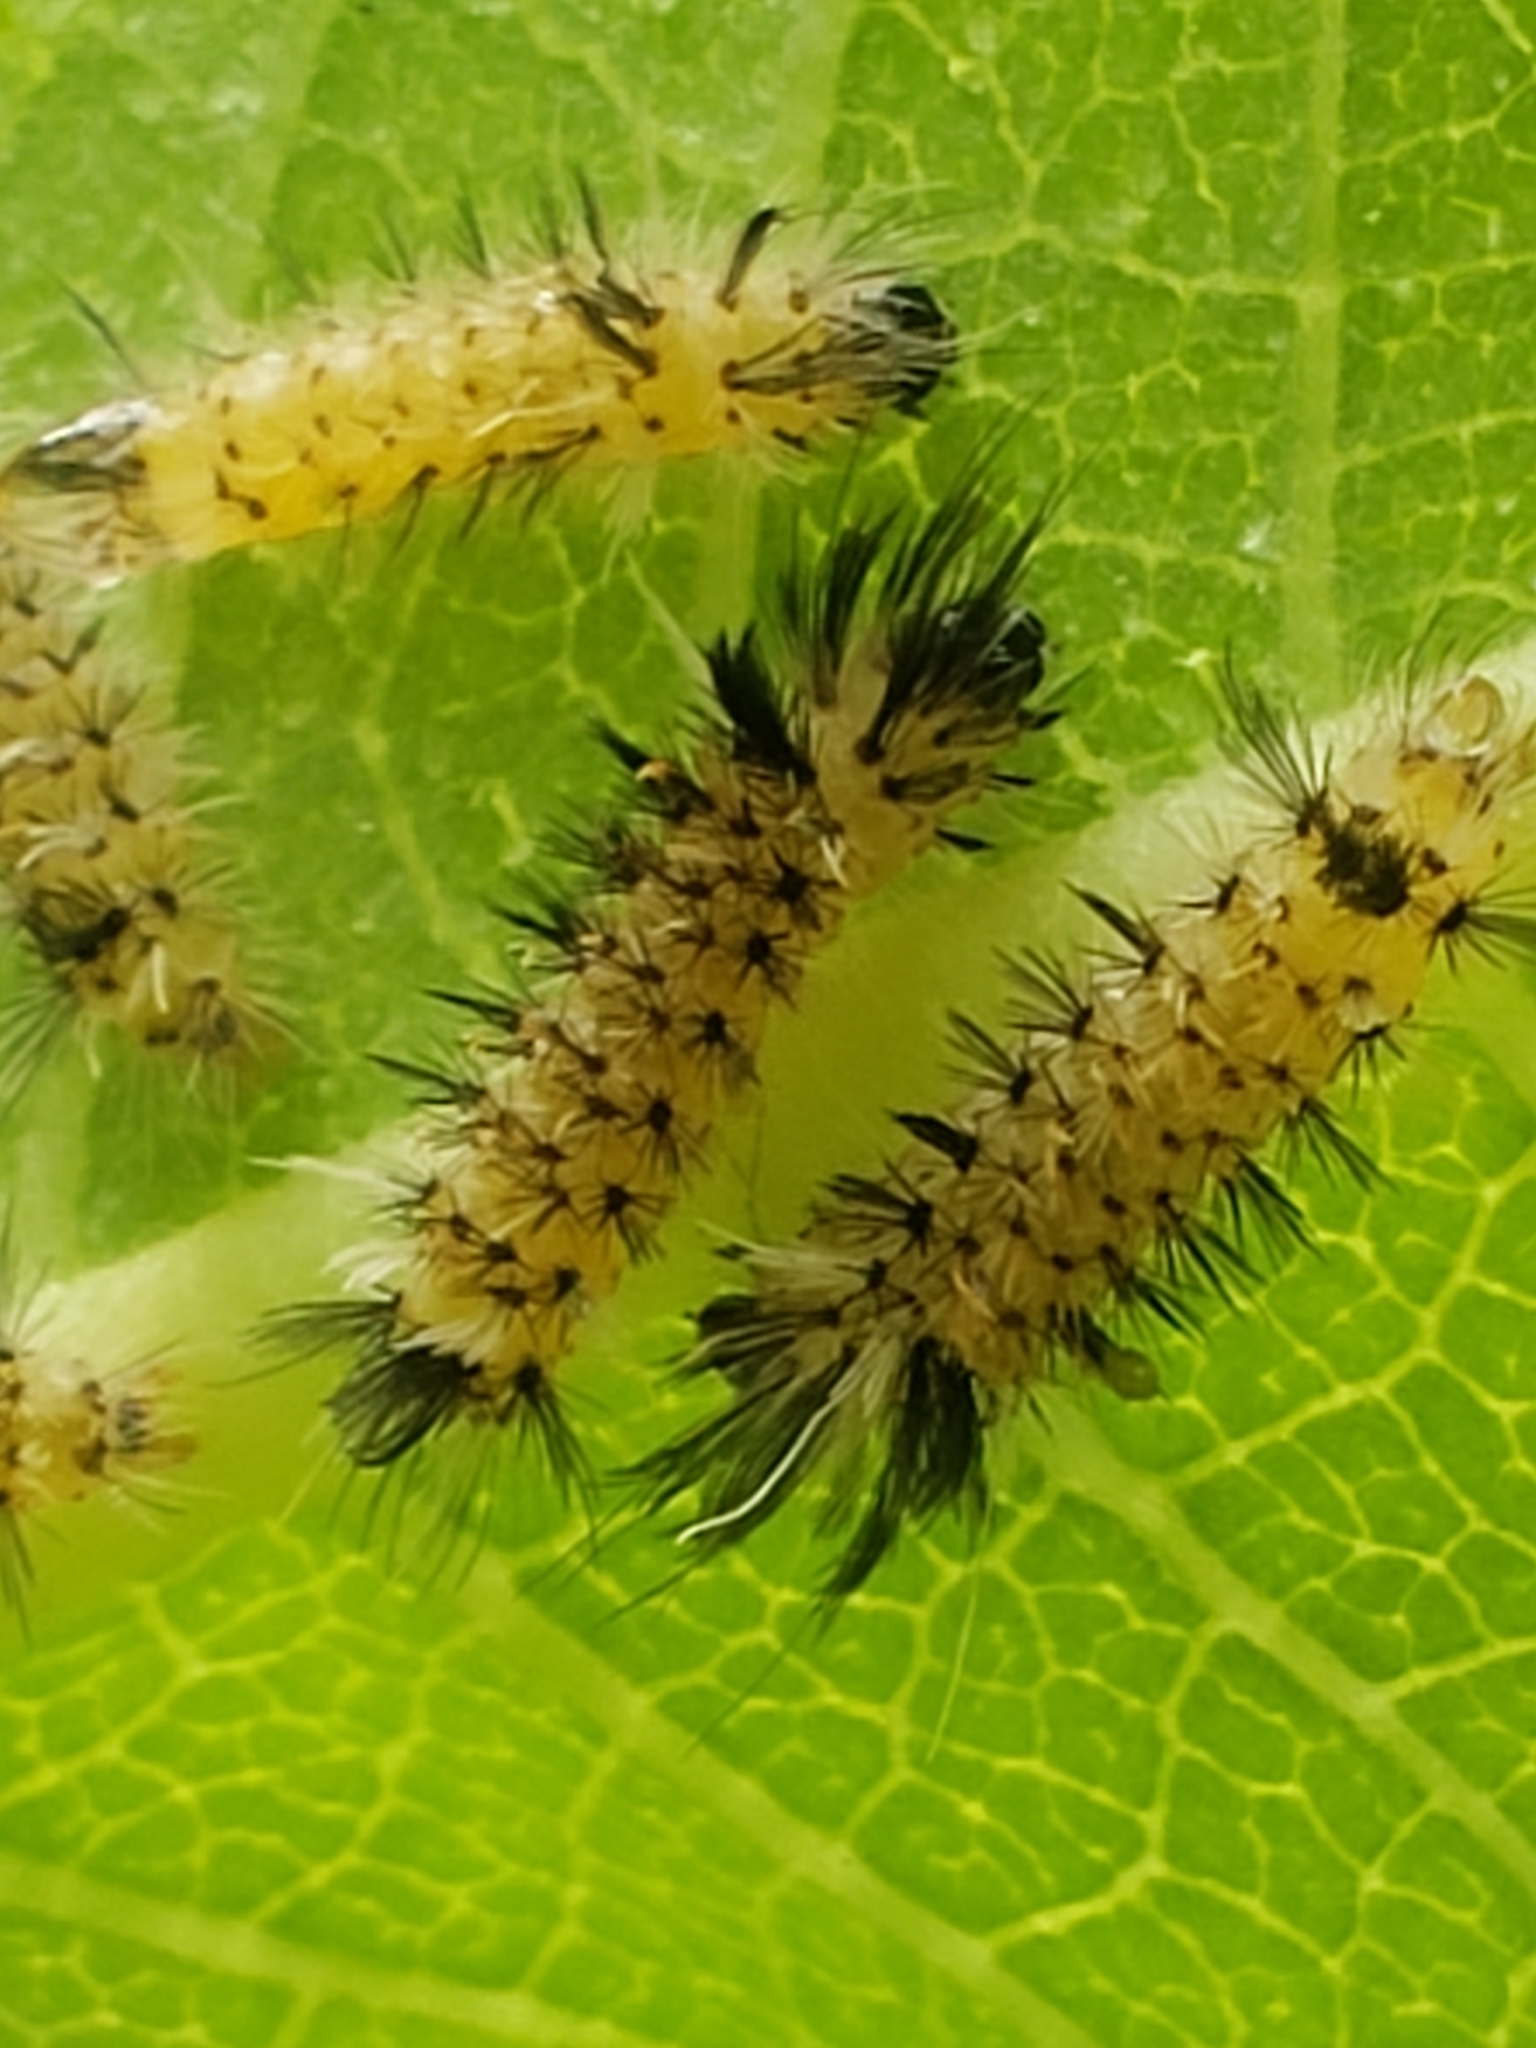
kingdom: Animalia
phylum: Arthropoda
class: Insecta
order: Lepidoptera
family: Erebidae
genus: Euchaetes
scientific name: Euchaetes egle
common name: Milkweed tussock moth
